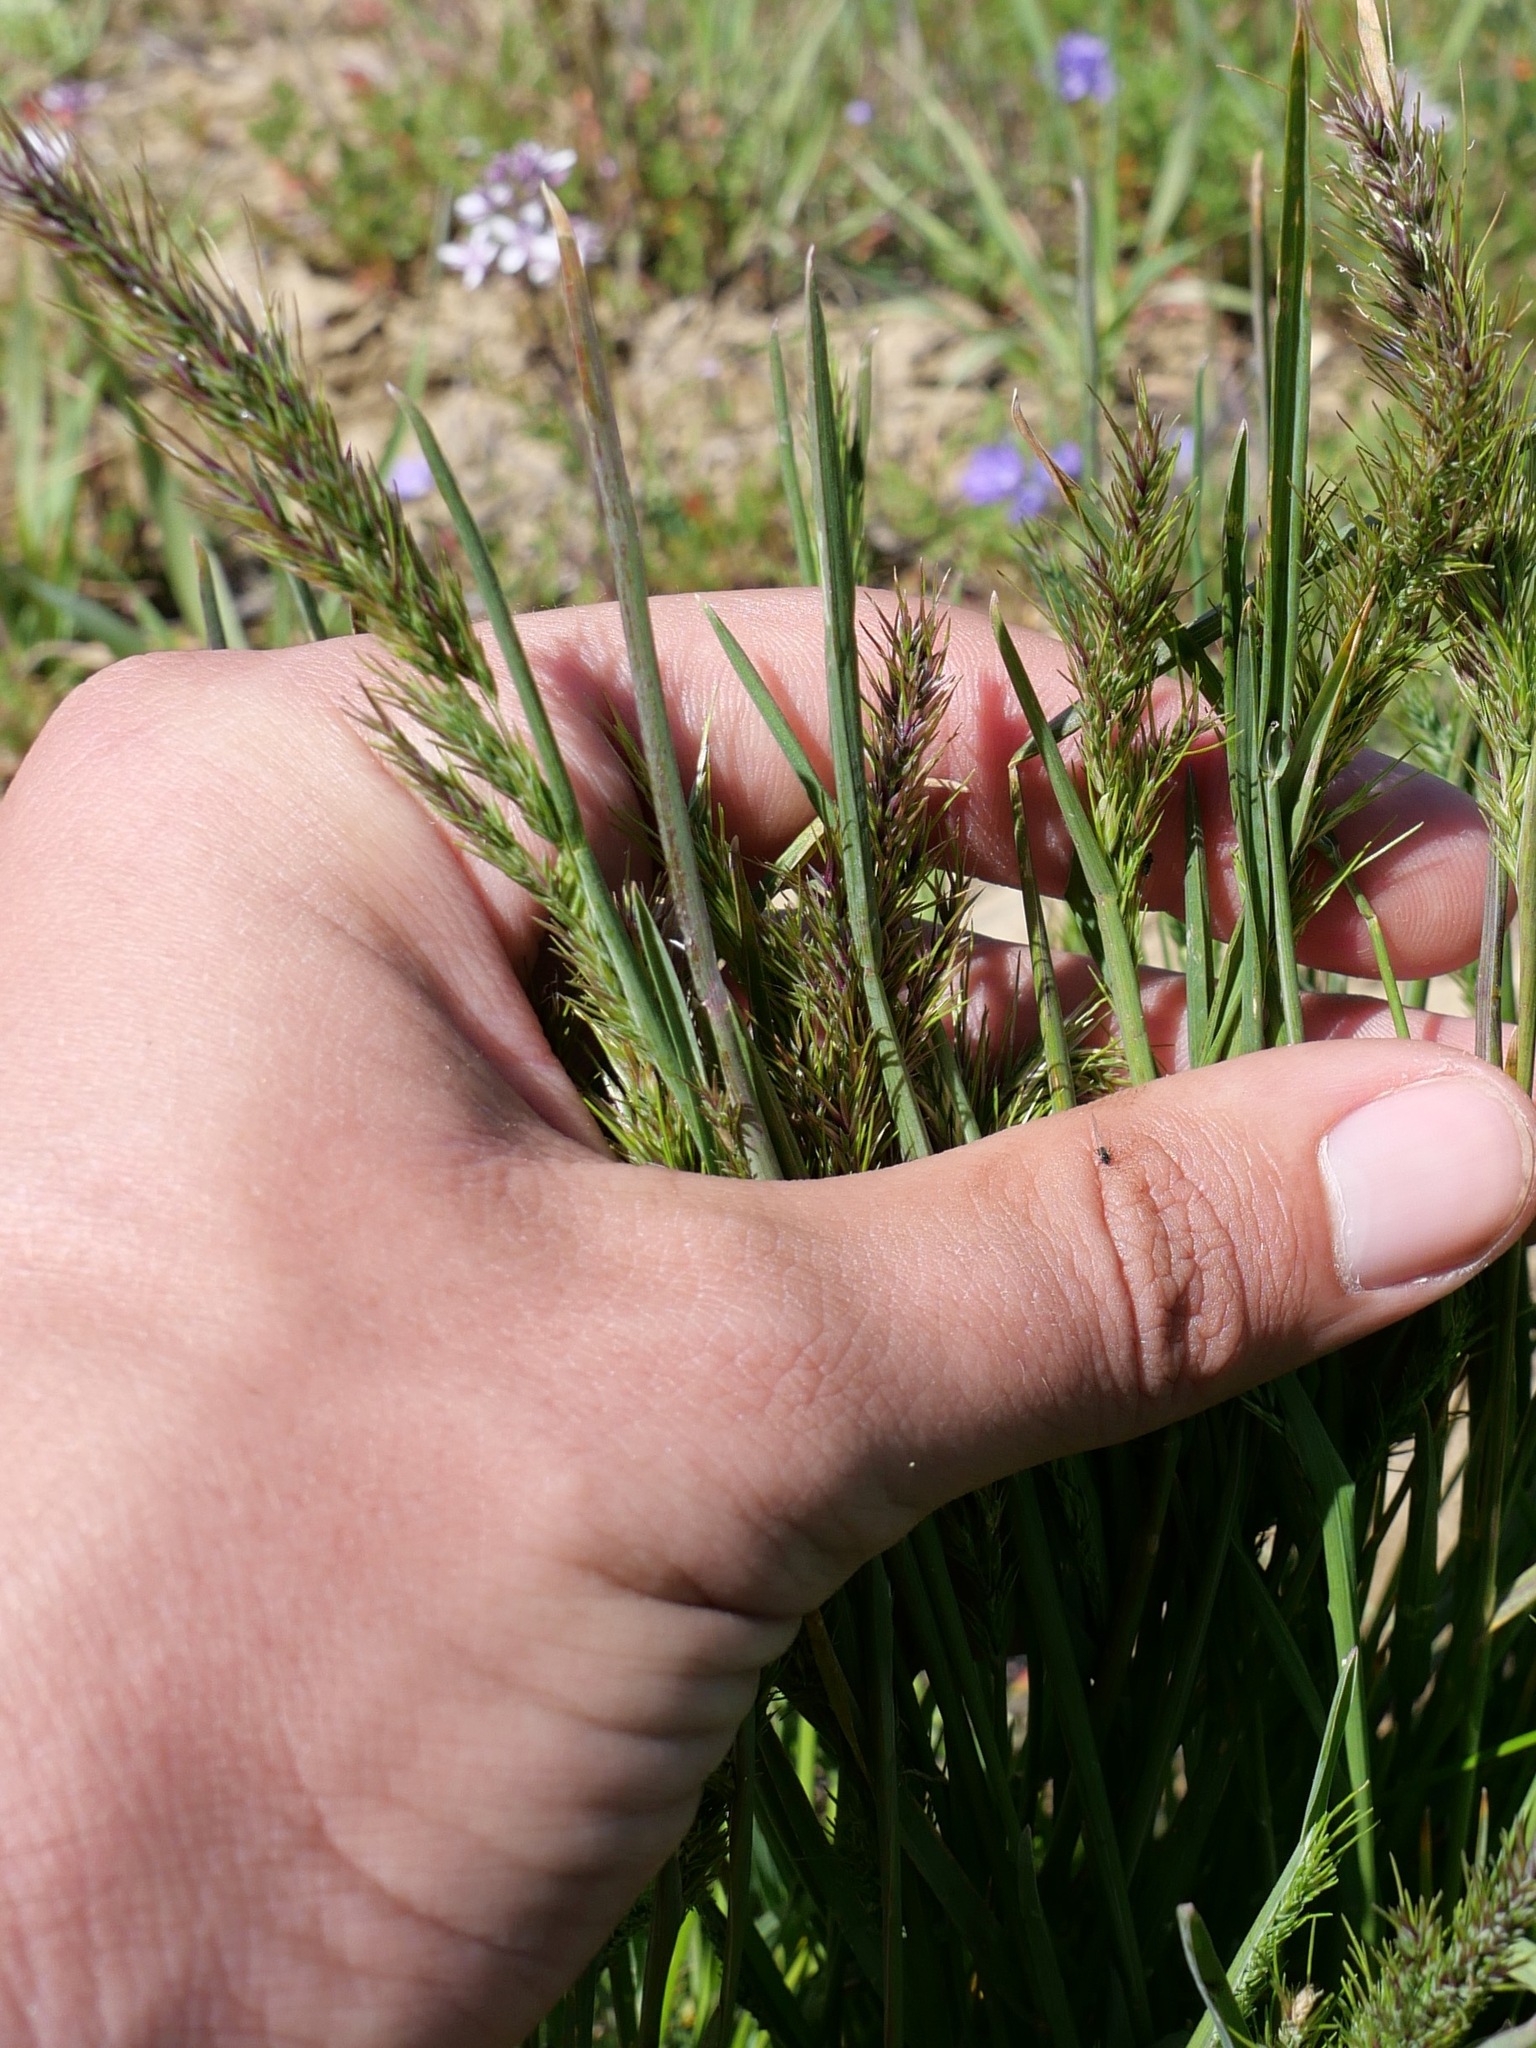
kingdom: Plantae
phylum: Tracheophyta
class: Liliopsida
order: Poales
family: Poaceae
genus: Poa
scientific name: Poa bulbosa
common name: Bulbous bluegrass
